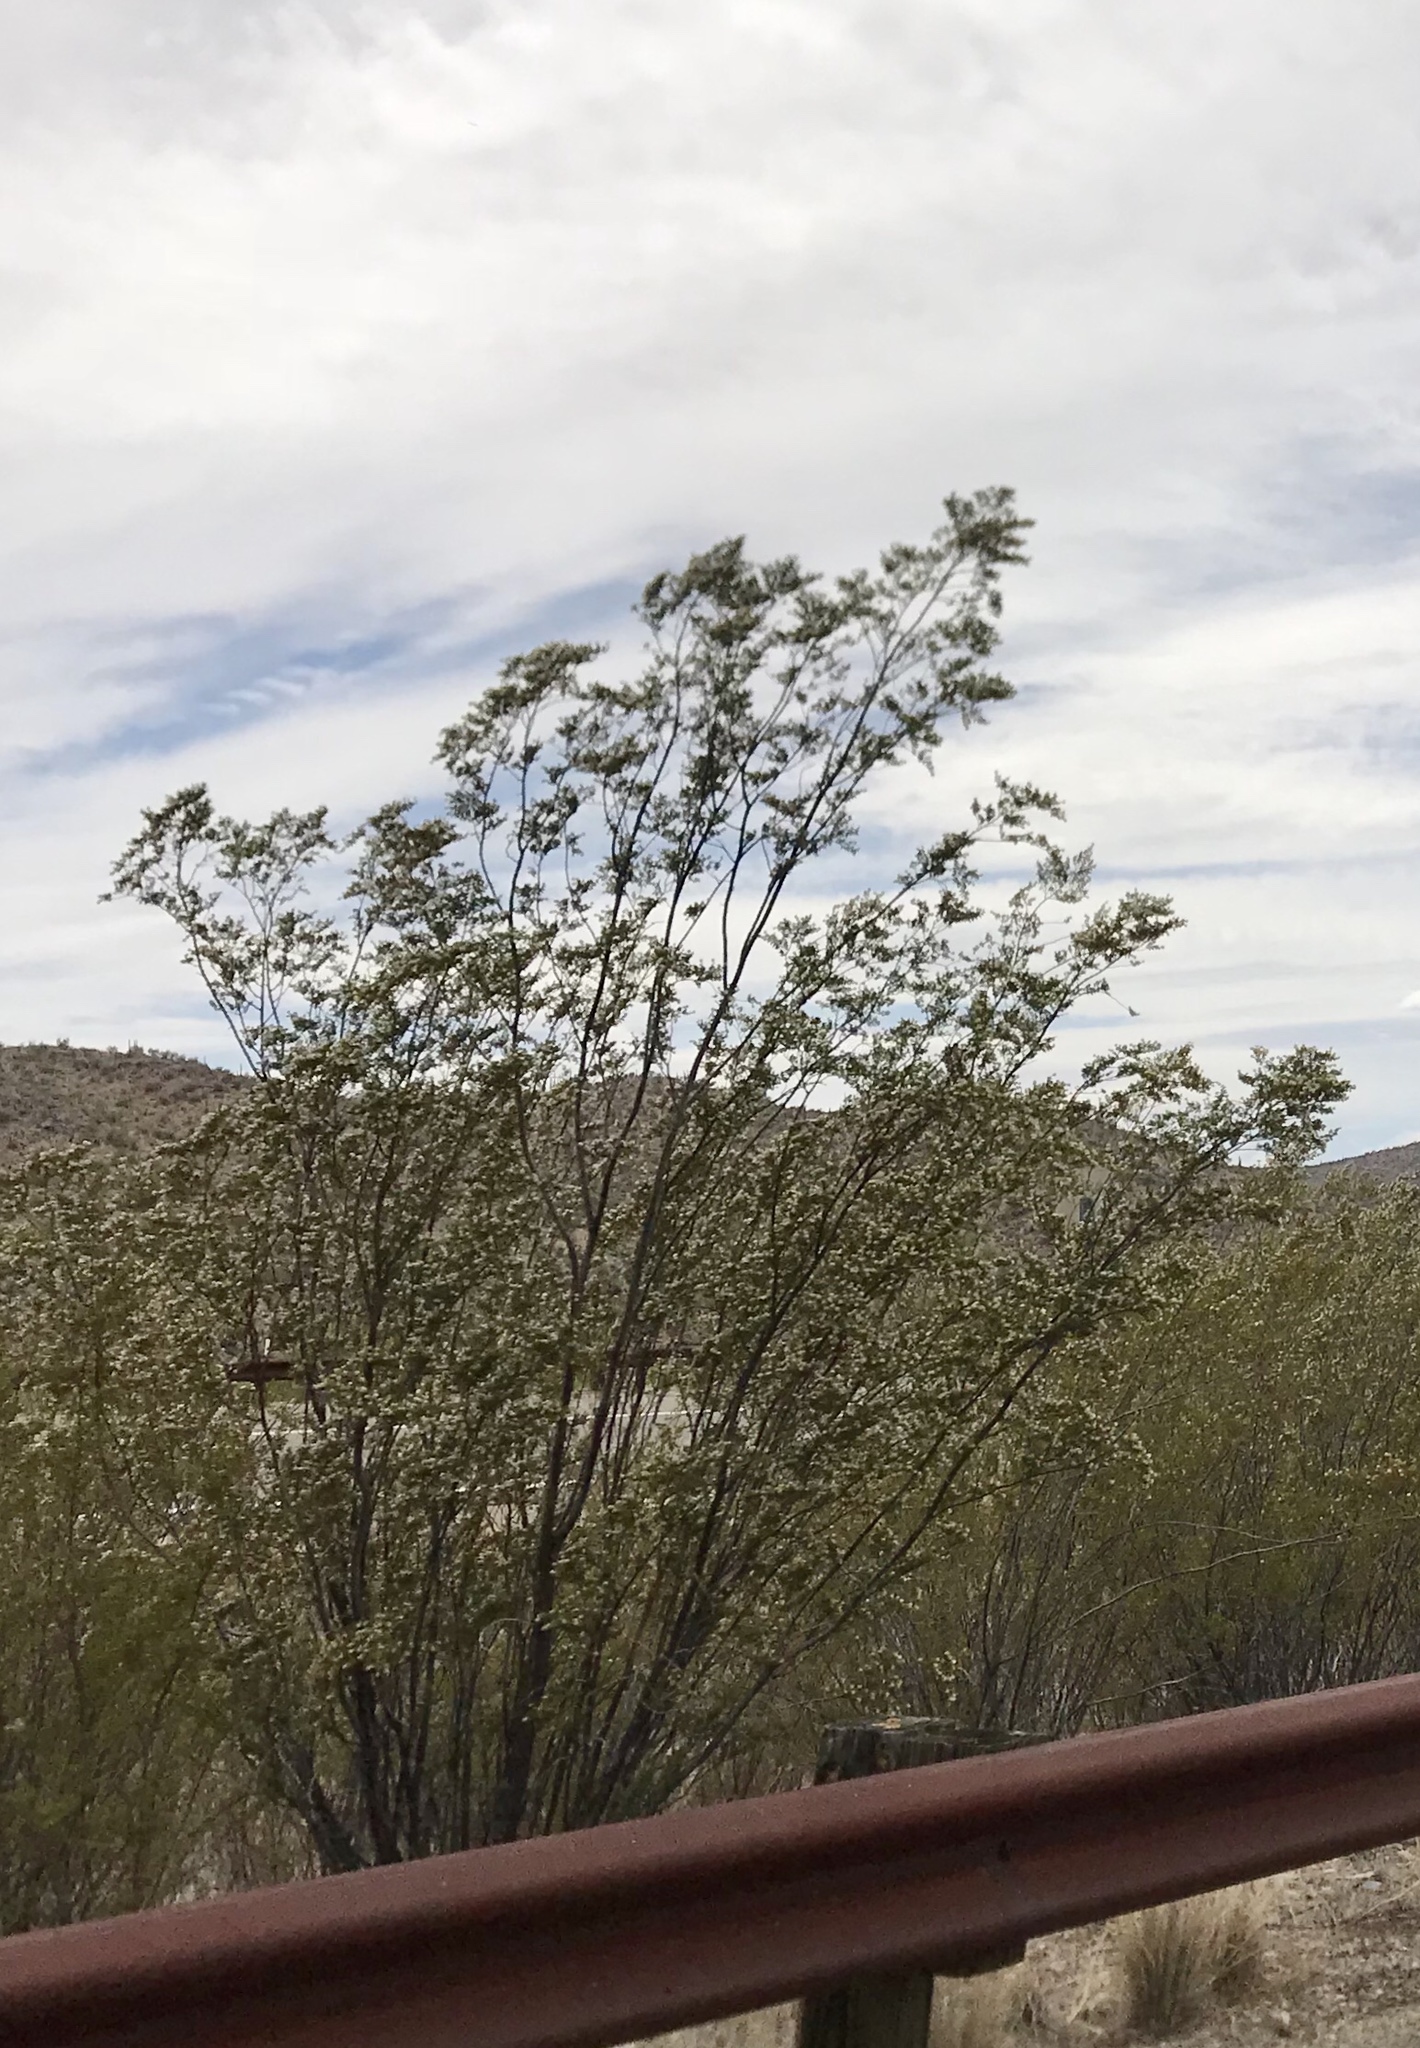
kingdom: Plantae
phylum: Tracheophyta
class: Magnoliopsida
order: Zygophyllales
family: Zygophyllaceae
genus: Larrea
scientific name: Larrea tridentata
